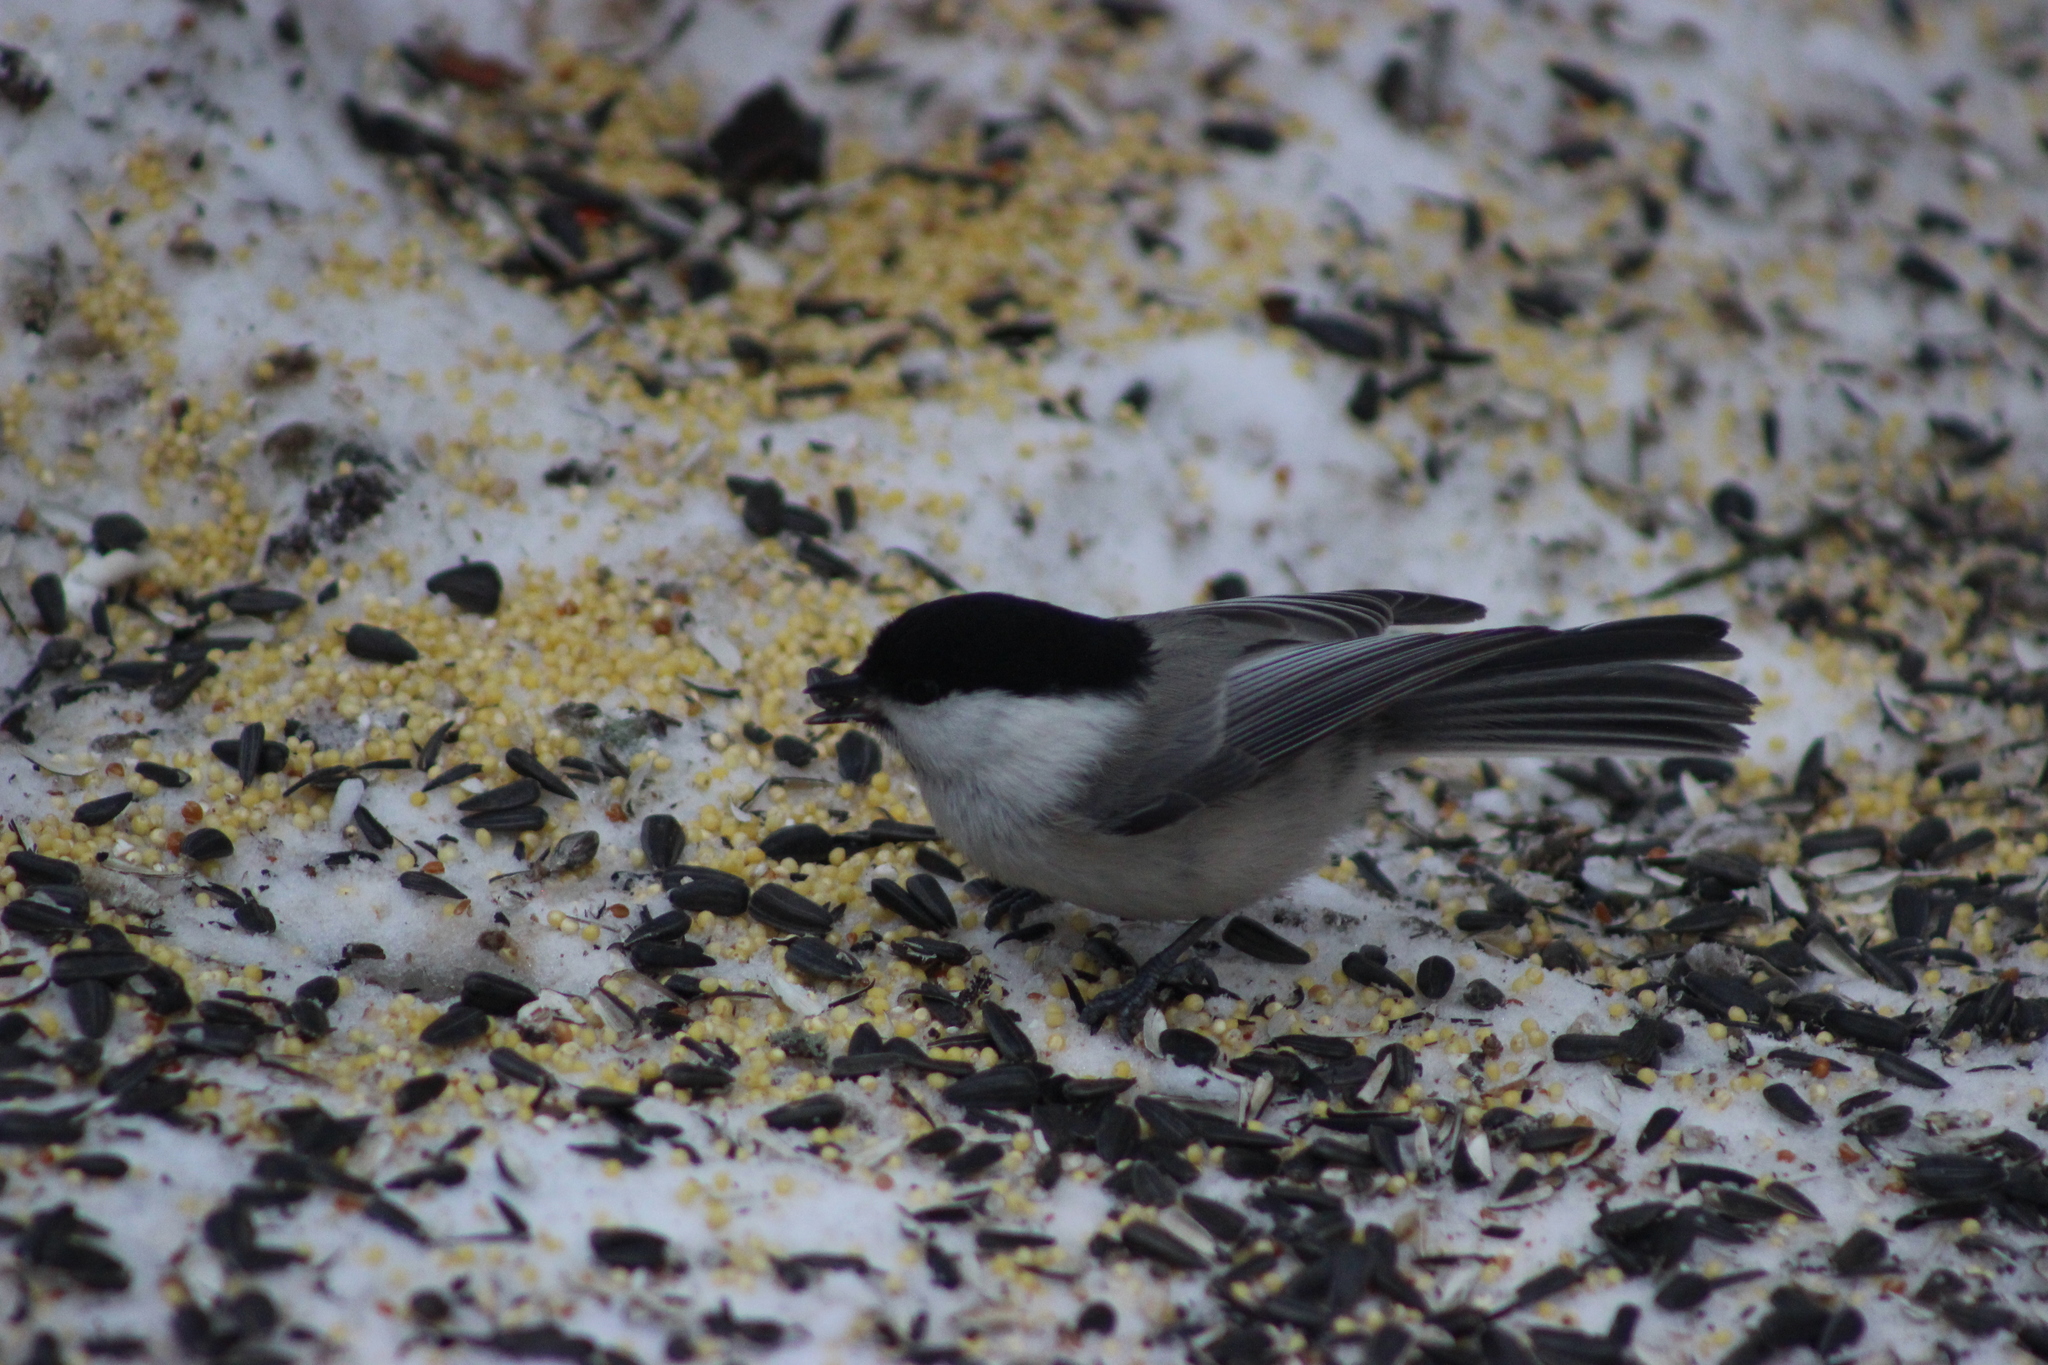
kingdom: Animalia
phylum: Chordata
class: Aves
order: Passeriformes
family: Paridae
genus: Poecile
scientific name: Poecile montanus
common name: Willow tit
